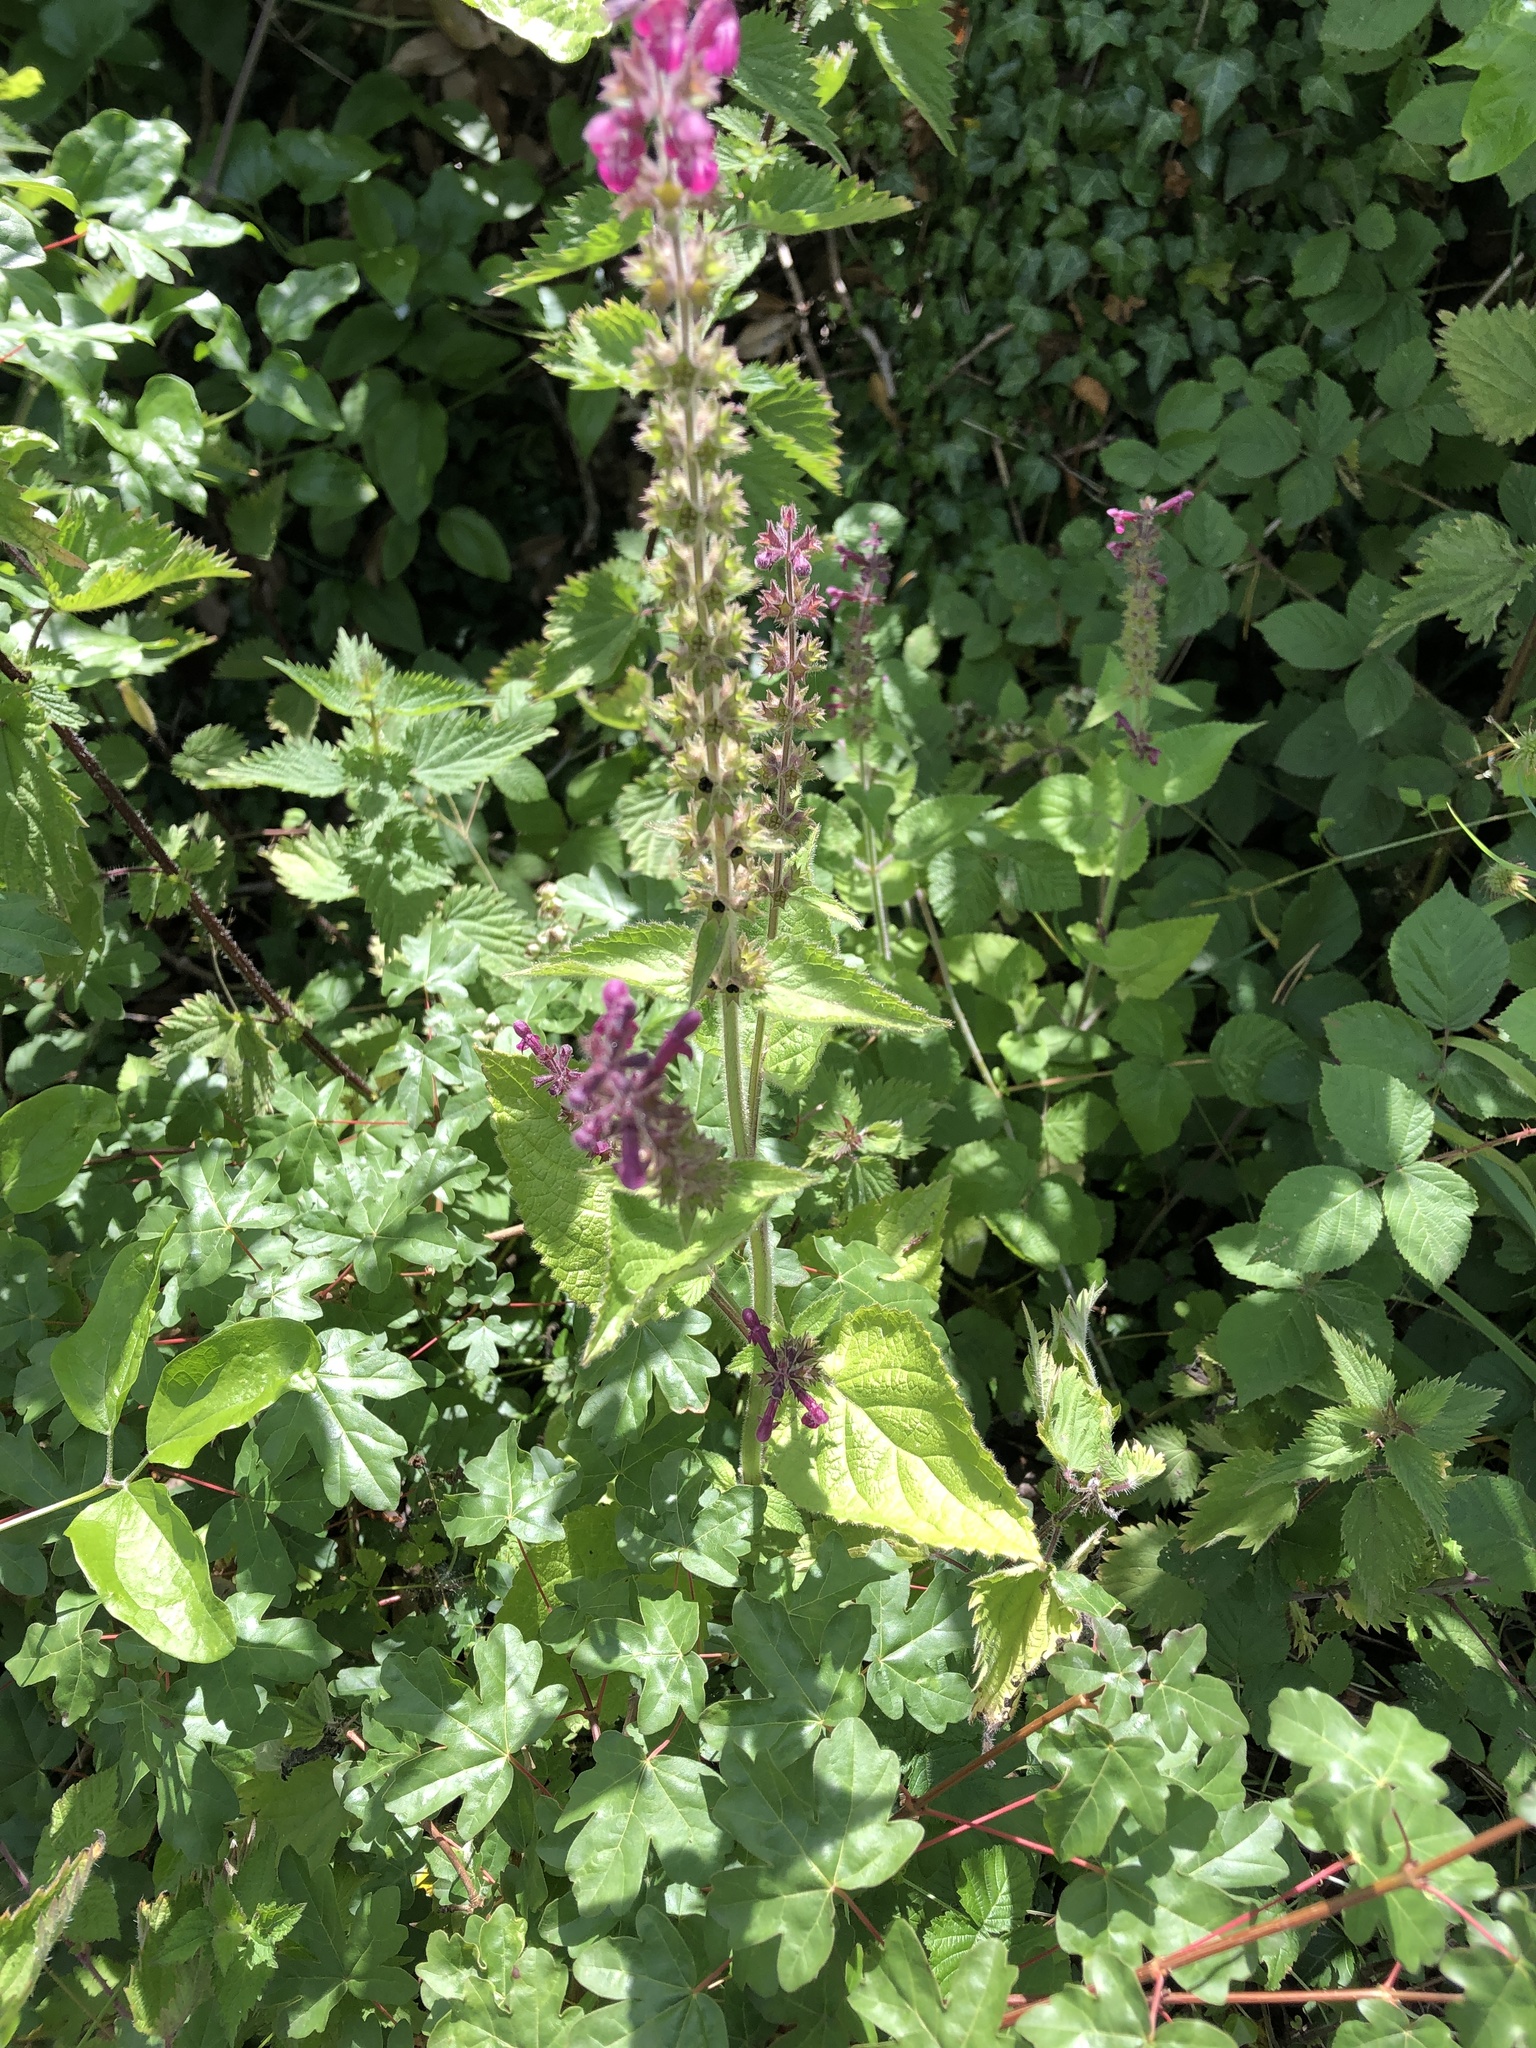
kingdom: Plantae
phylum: Tracheophyta
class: Magnoliopsida
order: Lamiales
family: Lamiaceae
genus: Stachys
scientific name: Stachys sylvatica
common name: Hedge woundwort
